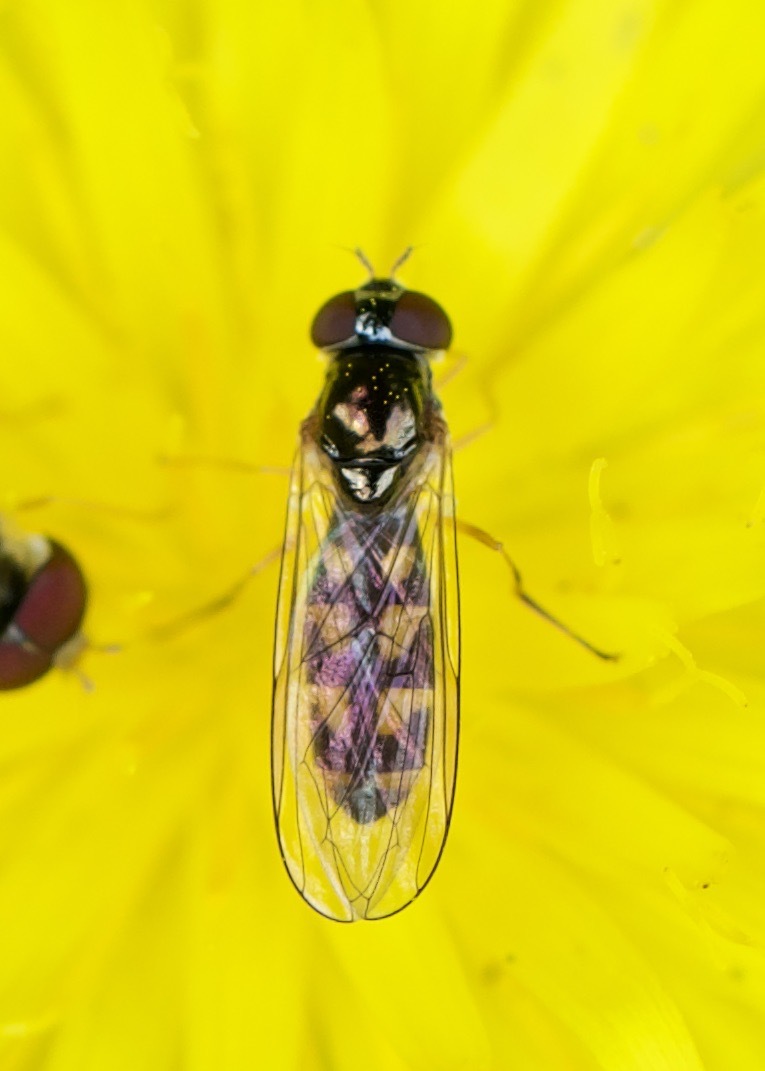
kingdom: Animalia
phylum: Arthropoda
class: Insecta
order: Diptera
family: Syrphidae
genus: Melanostoma
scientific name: Melanostoma
